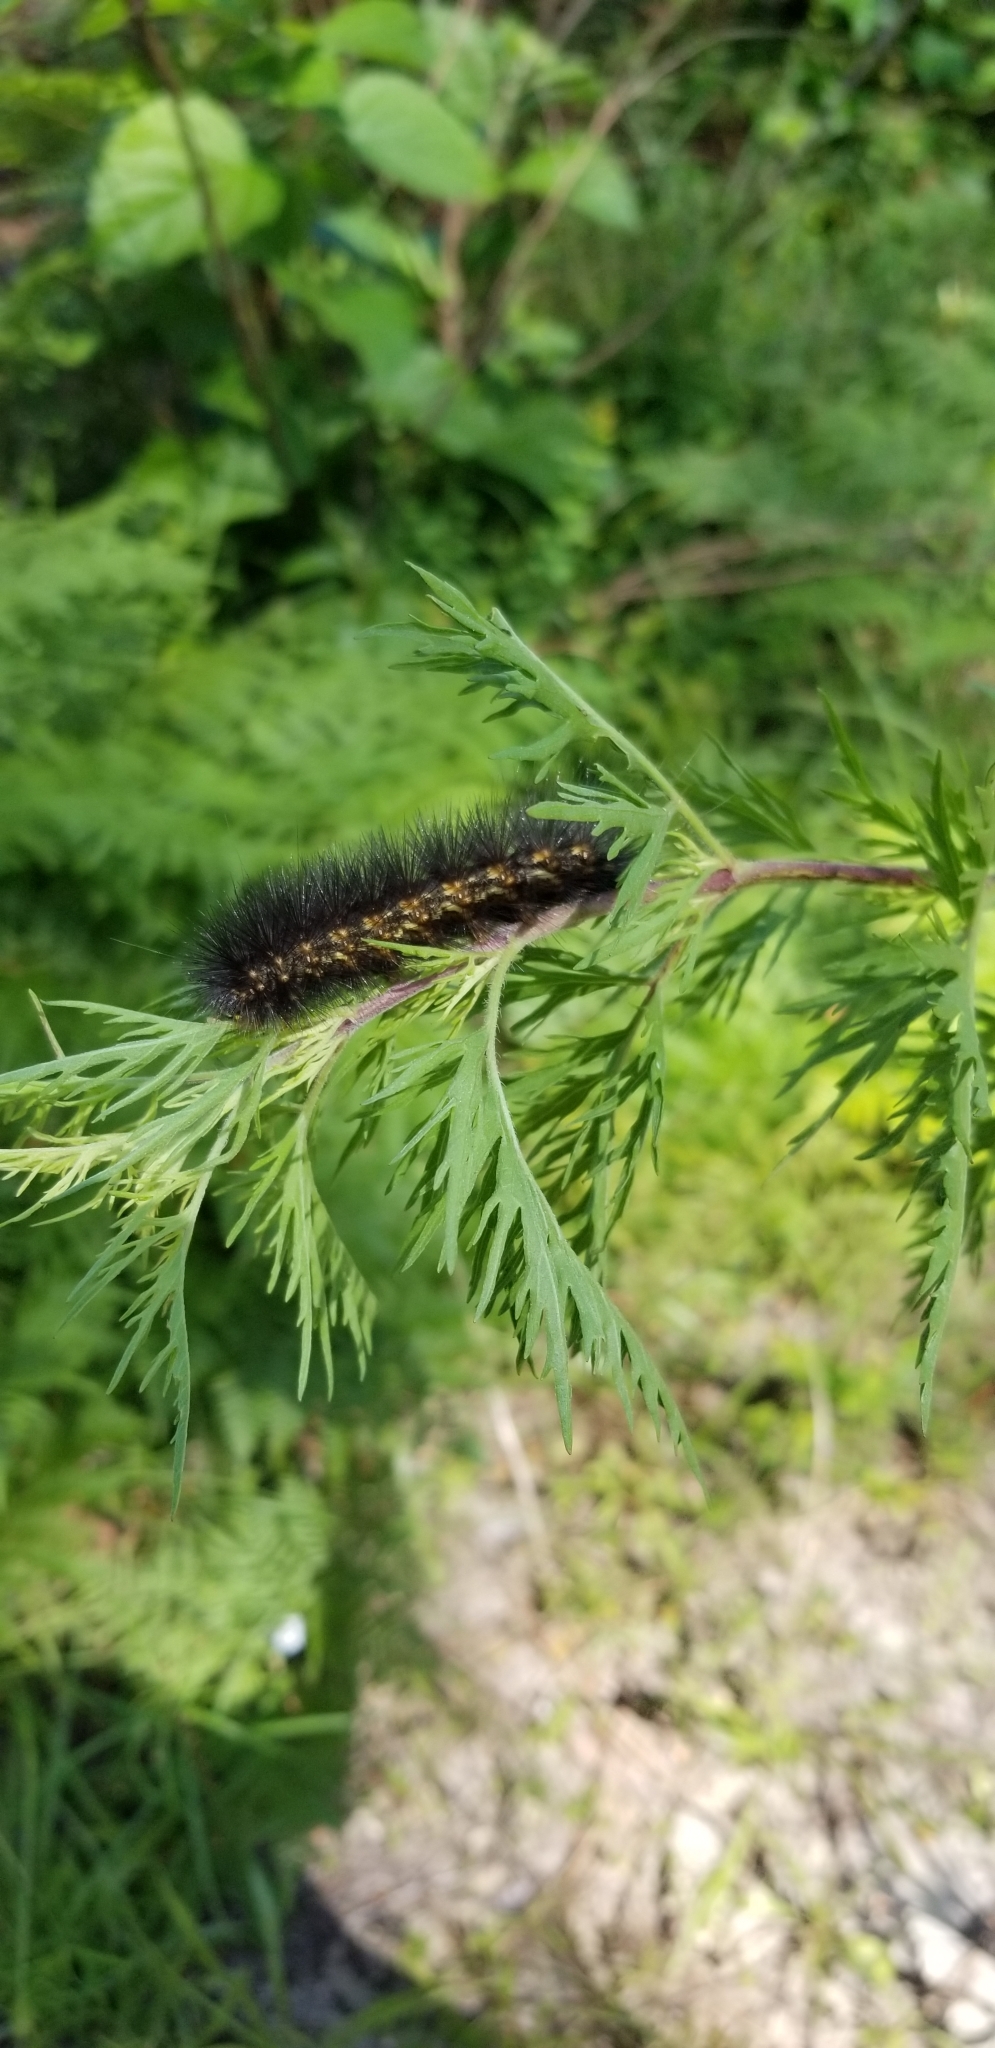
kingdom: Animalia
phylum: Arthropoda
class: Insecta
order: Lepidoptera
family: Erebidae
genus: Estigmene
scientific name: Estigmene acrea
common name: Salt marsh moth
